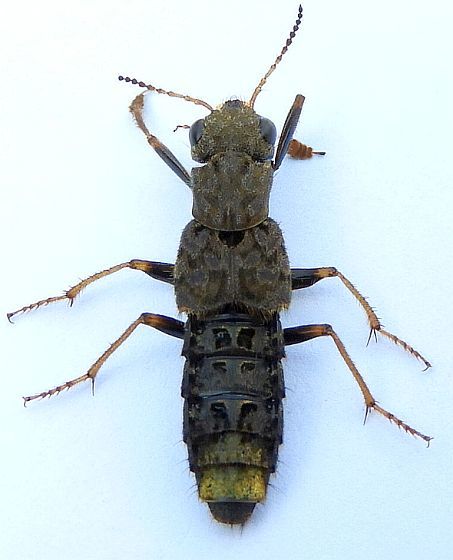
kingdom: Animalia
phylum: Arthropoda
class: Insecta
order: Coleoptera
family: Staphylinidae
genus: Ontholestes
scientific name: Ontholestes cingulatus
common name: Gold-and-brown rove beetle
